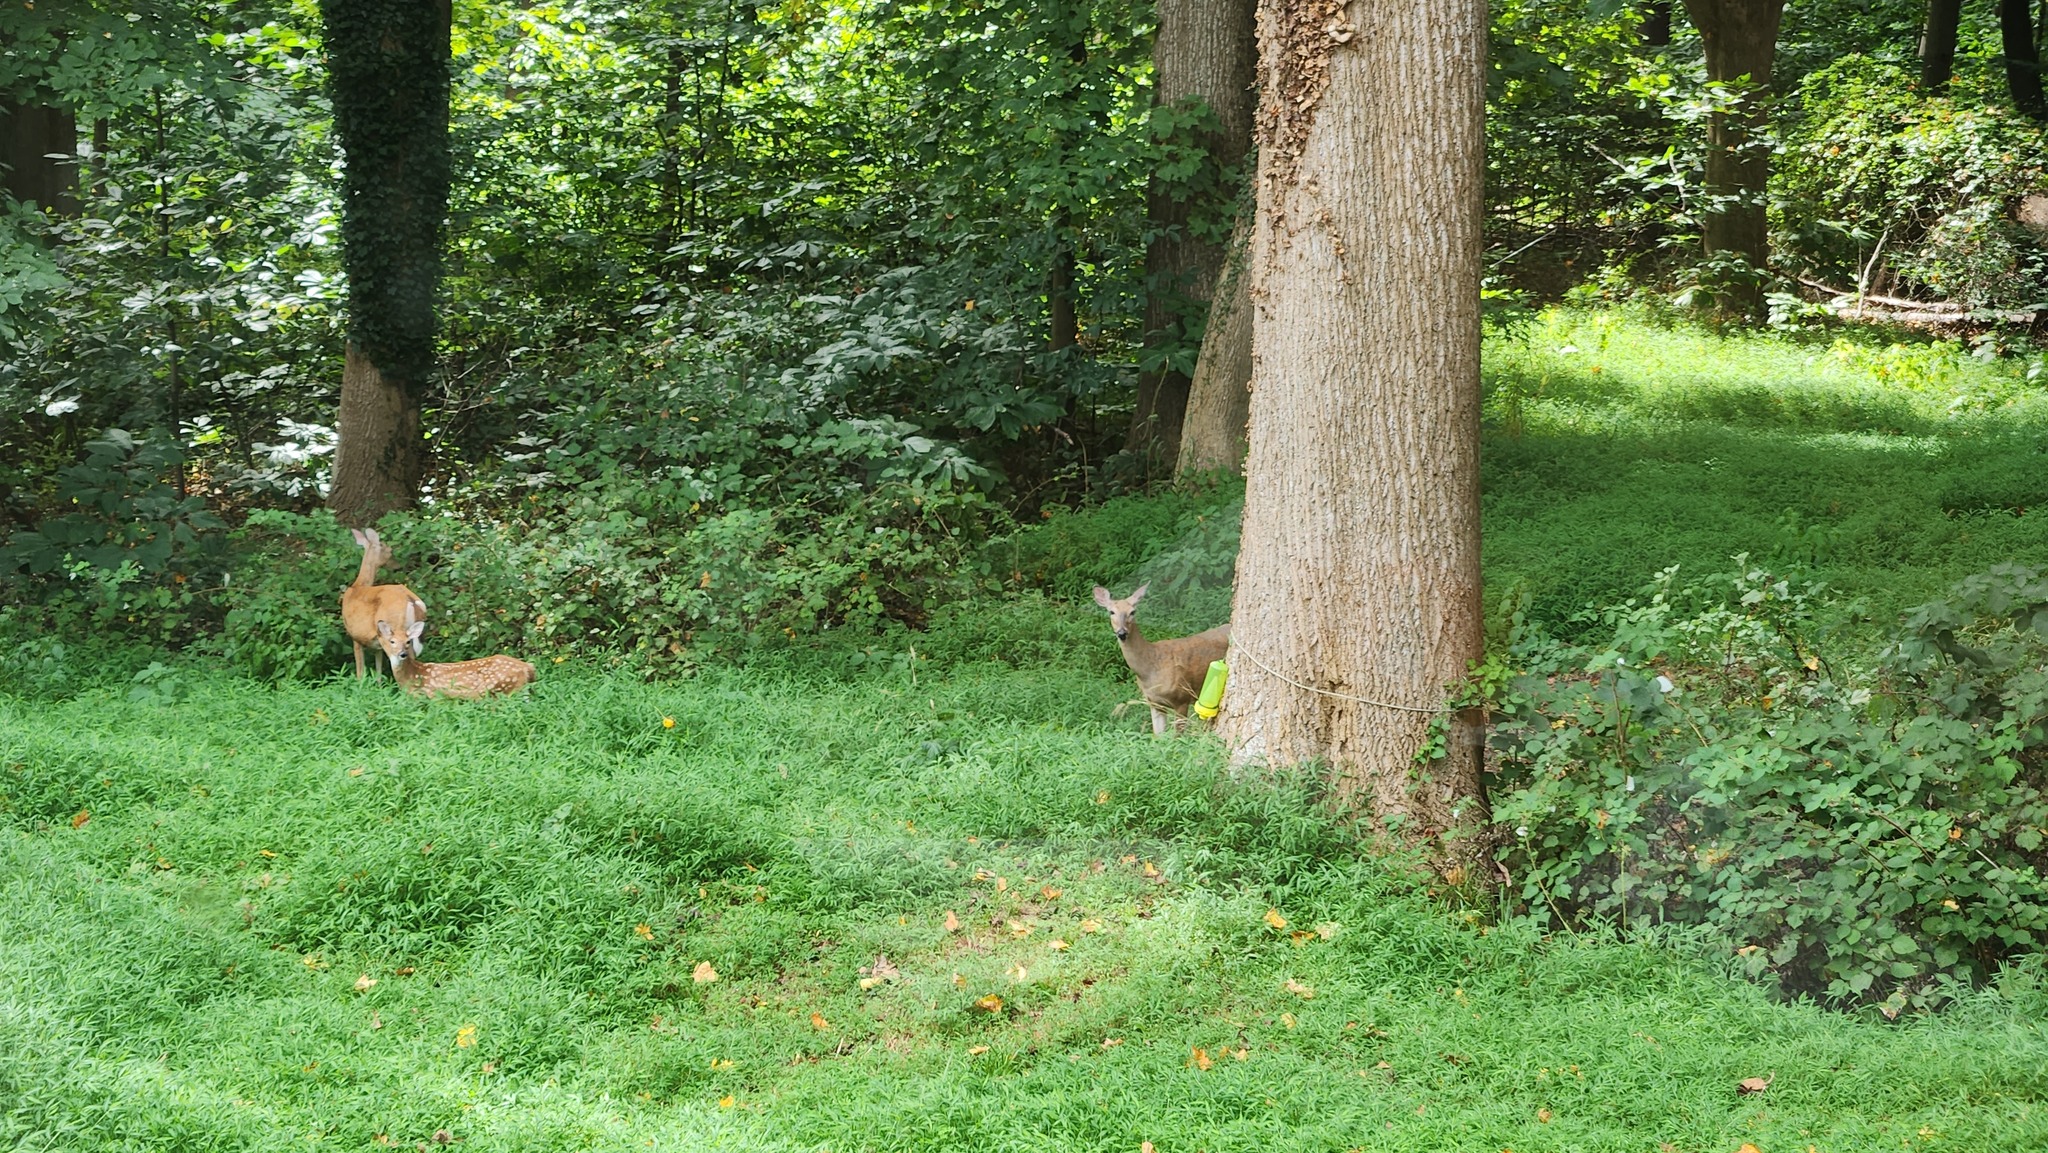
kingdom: Animalia
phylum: Chordata
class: Mammalia
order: Artiodactyla
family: Cervidae
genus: Odocoileus
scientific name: Odocoileus virginianus
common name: White-tailed deer
